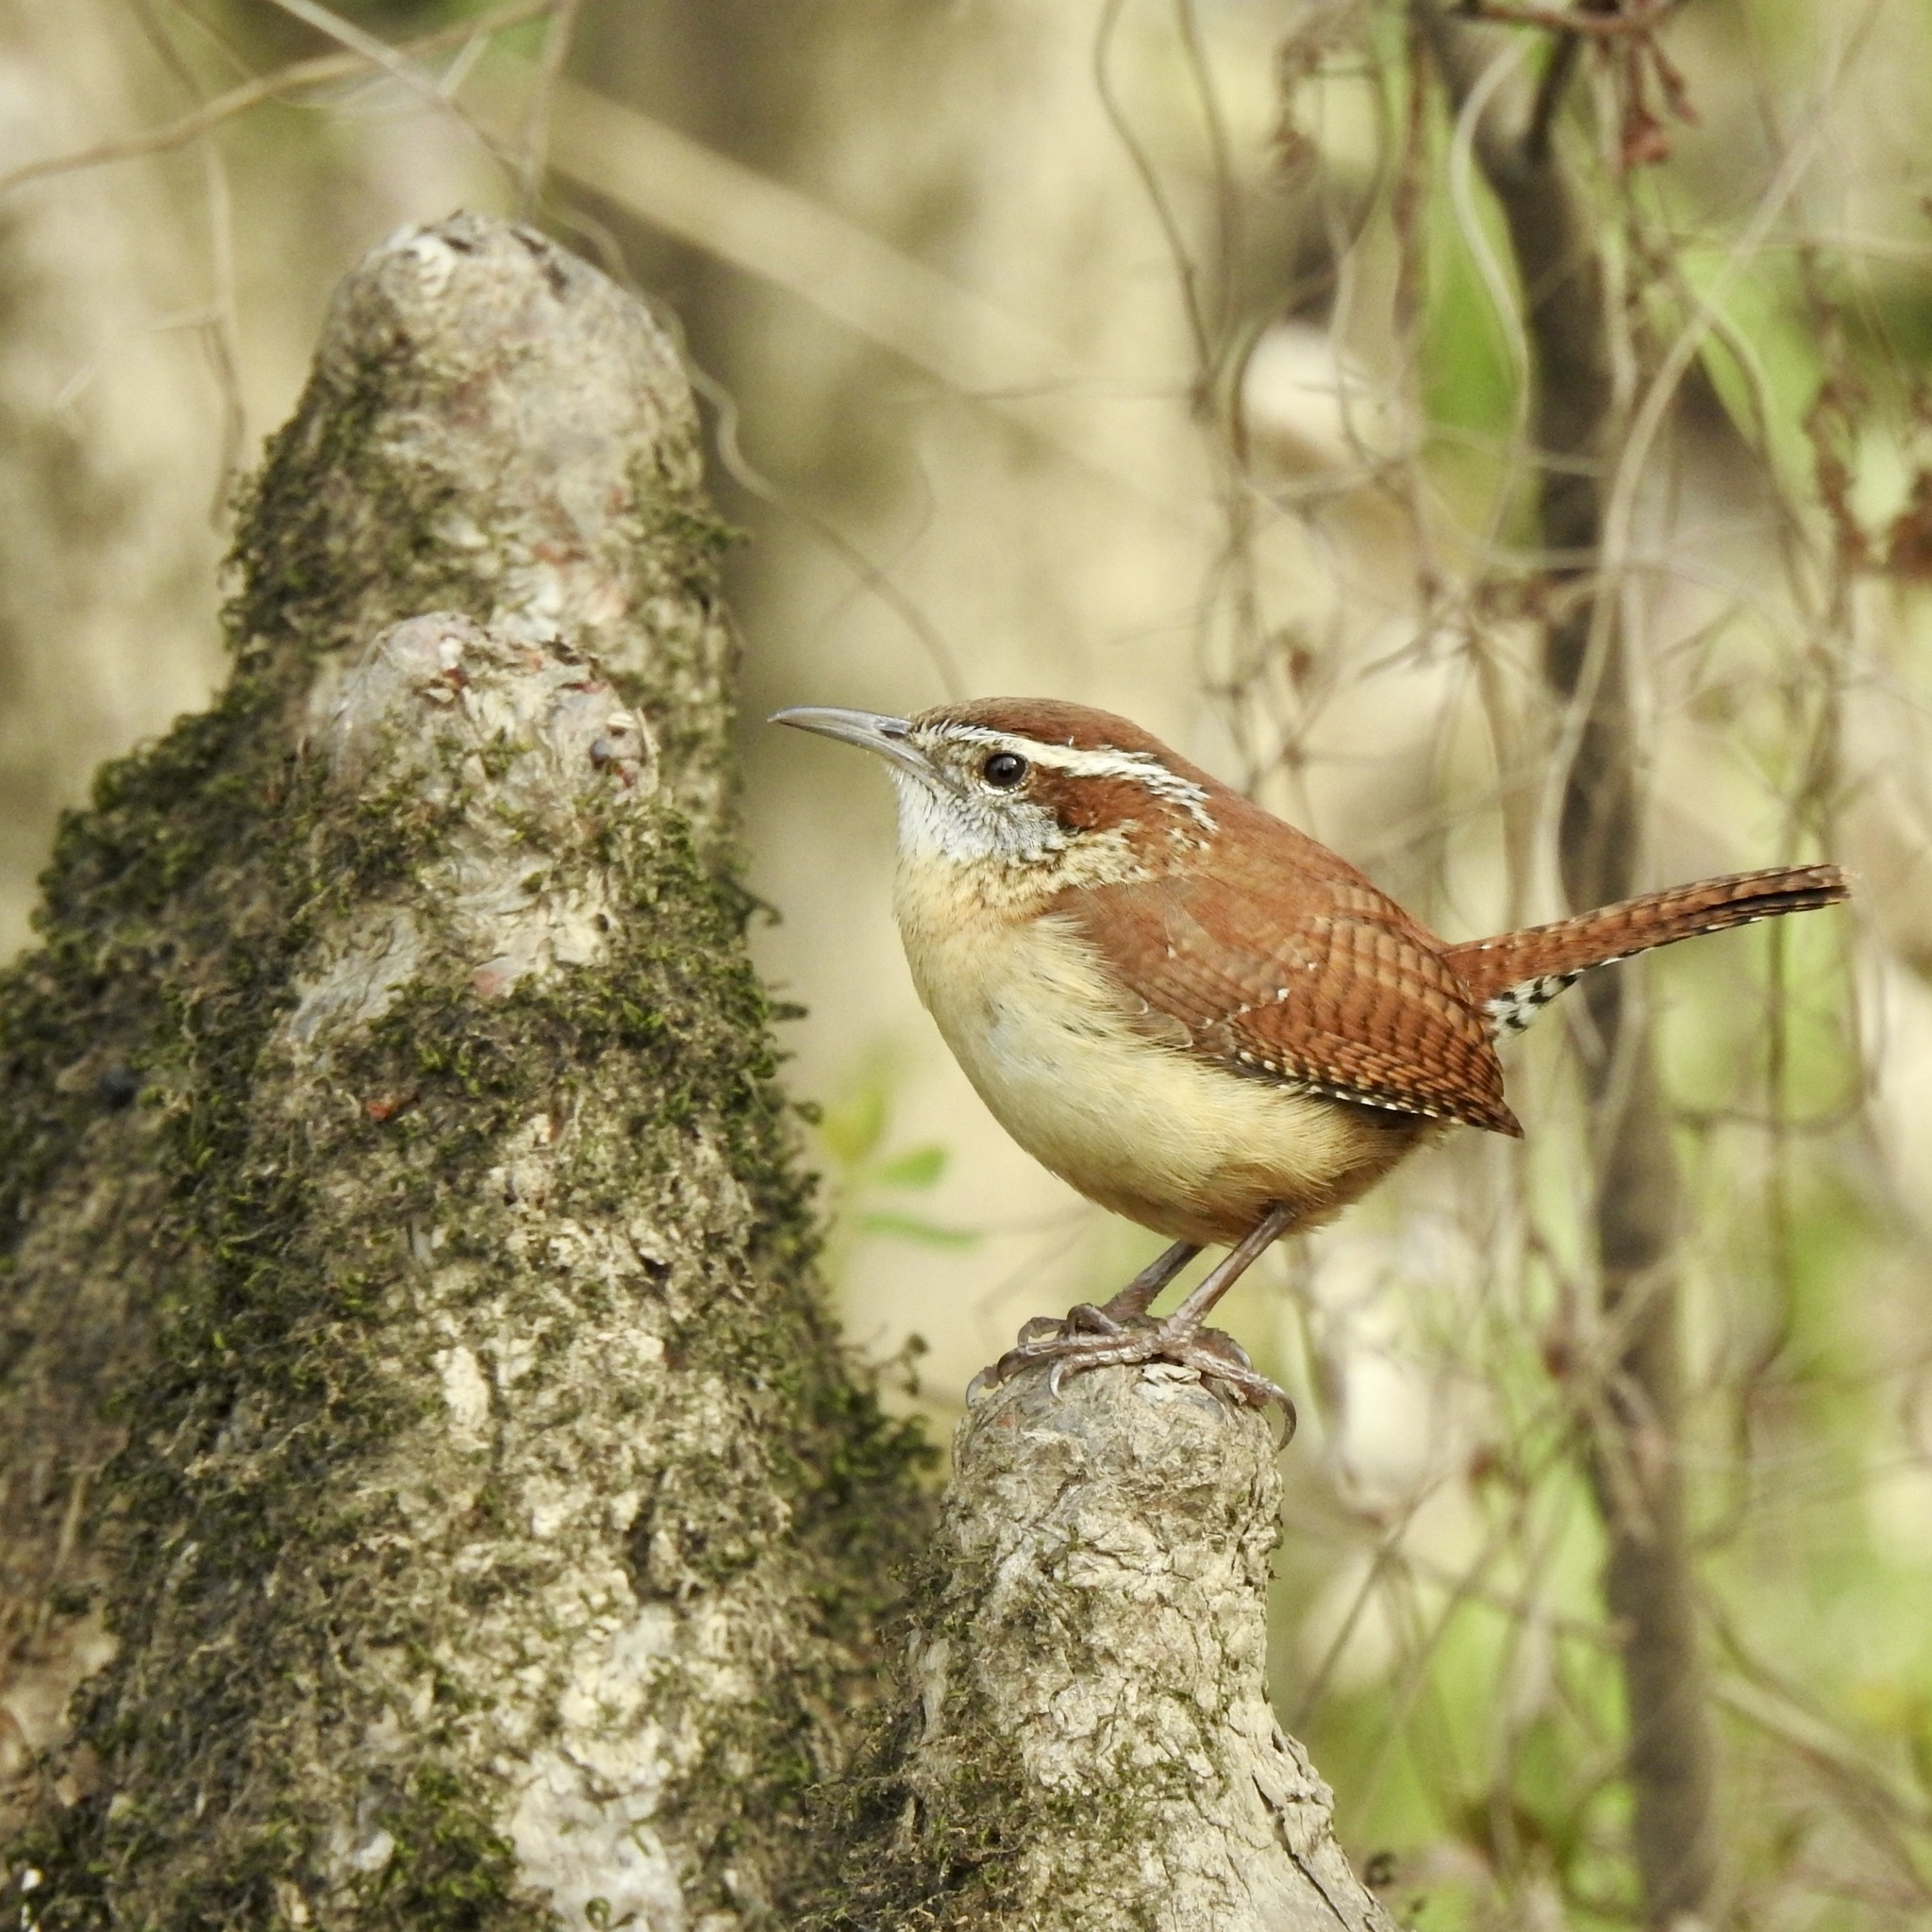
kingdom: Animalia
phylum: Chordata
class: Aves
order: Passeriformes
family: Troglodytidae
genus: Thryothorus
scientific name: Thryothorus ludovicianus
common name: Carolina wren
